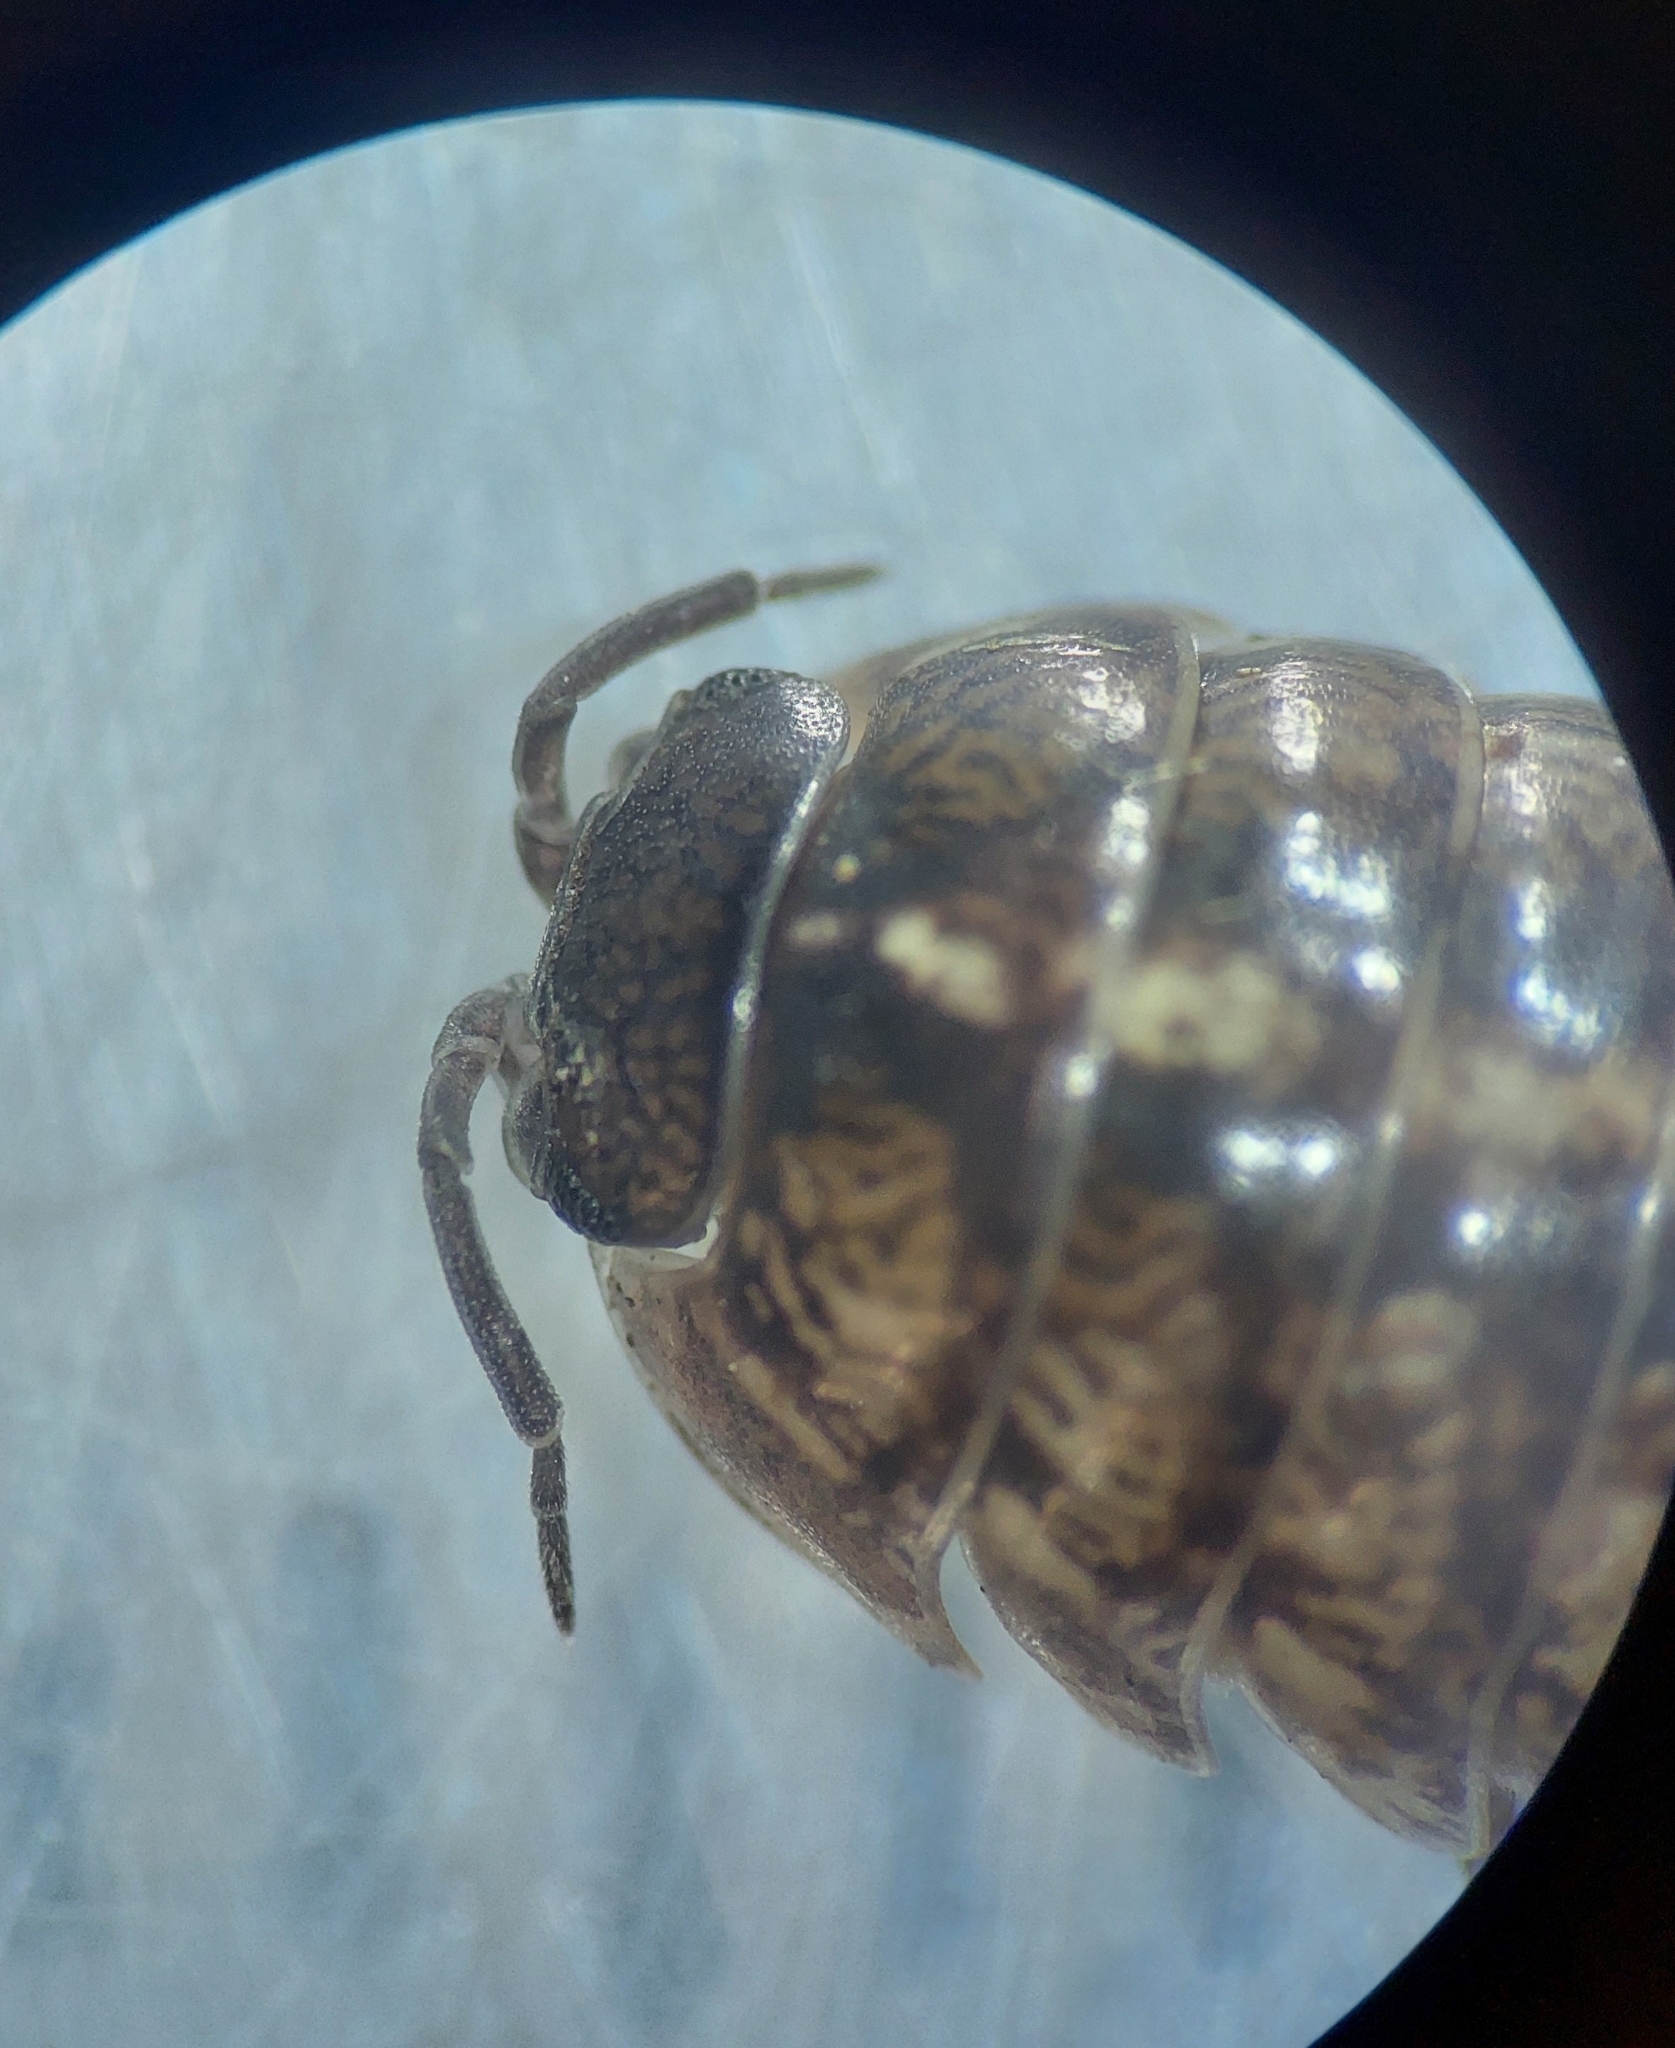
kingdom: Animalia
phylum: Arthropoda
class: Malacostraca
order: Isopoda
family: Armadillidiidae
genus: Armadillidium
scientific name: Armadillidium vulgare
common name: Common pill woodlouse
